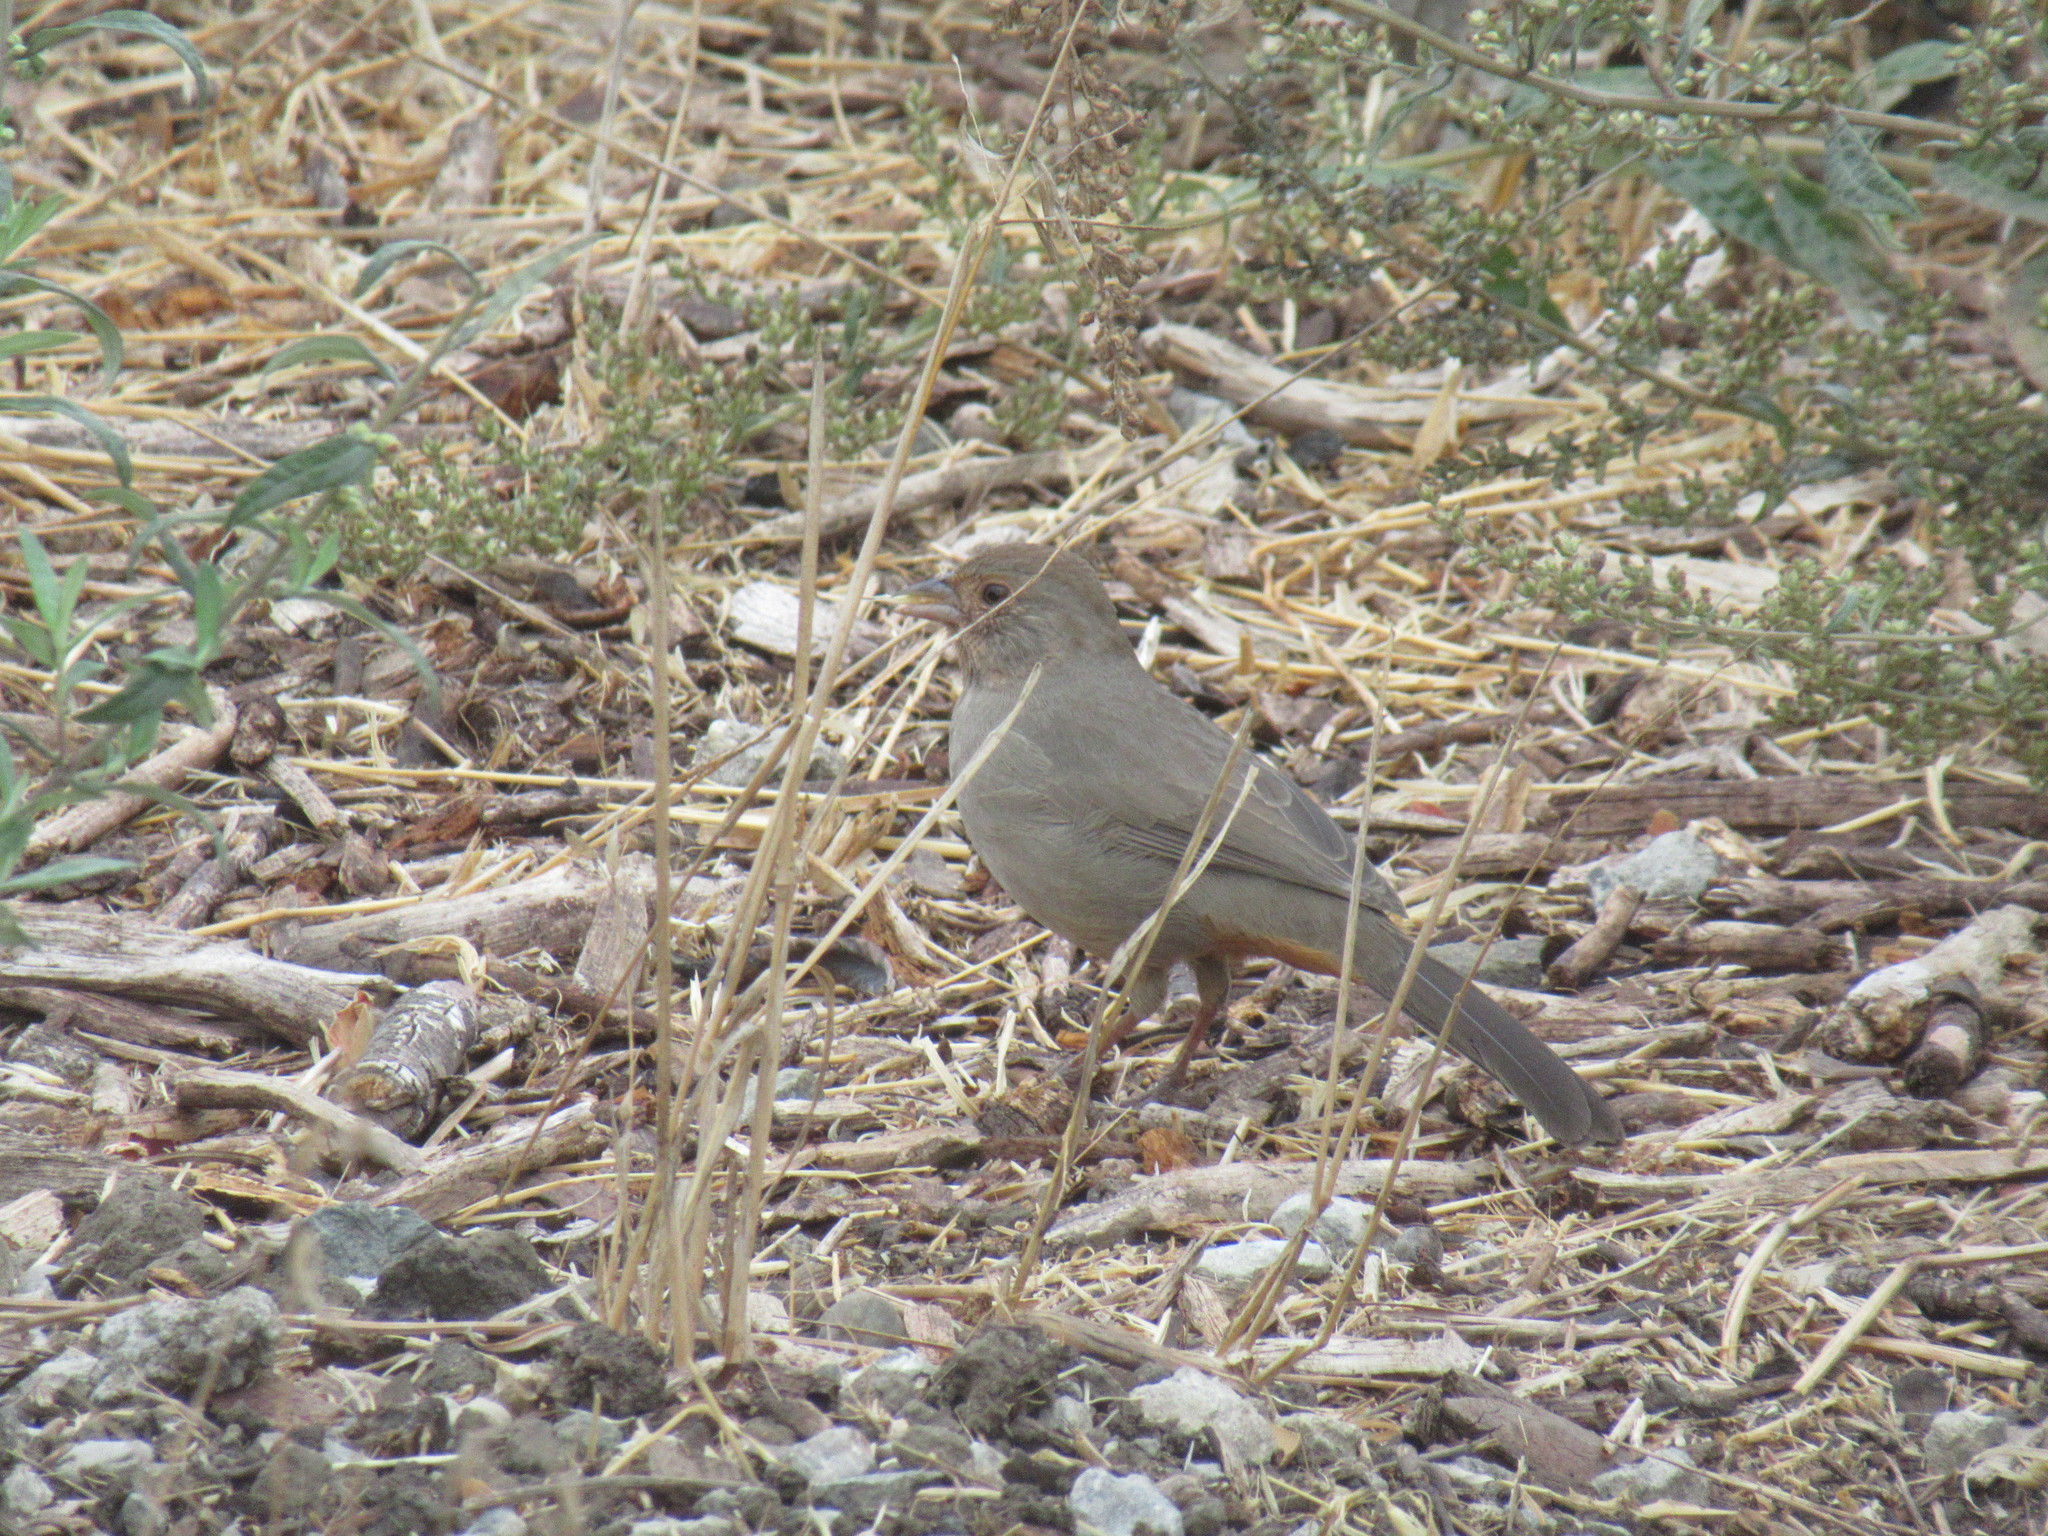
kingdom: Animalia
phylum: Chordata
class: Aves
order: Passeriformes
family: Passerellidae
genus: Melozone
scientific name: Melozone crissalis
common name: California towhee
